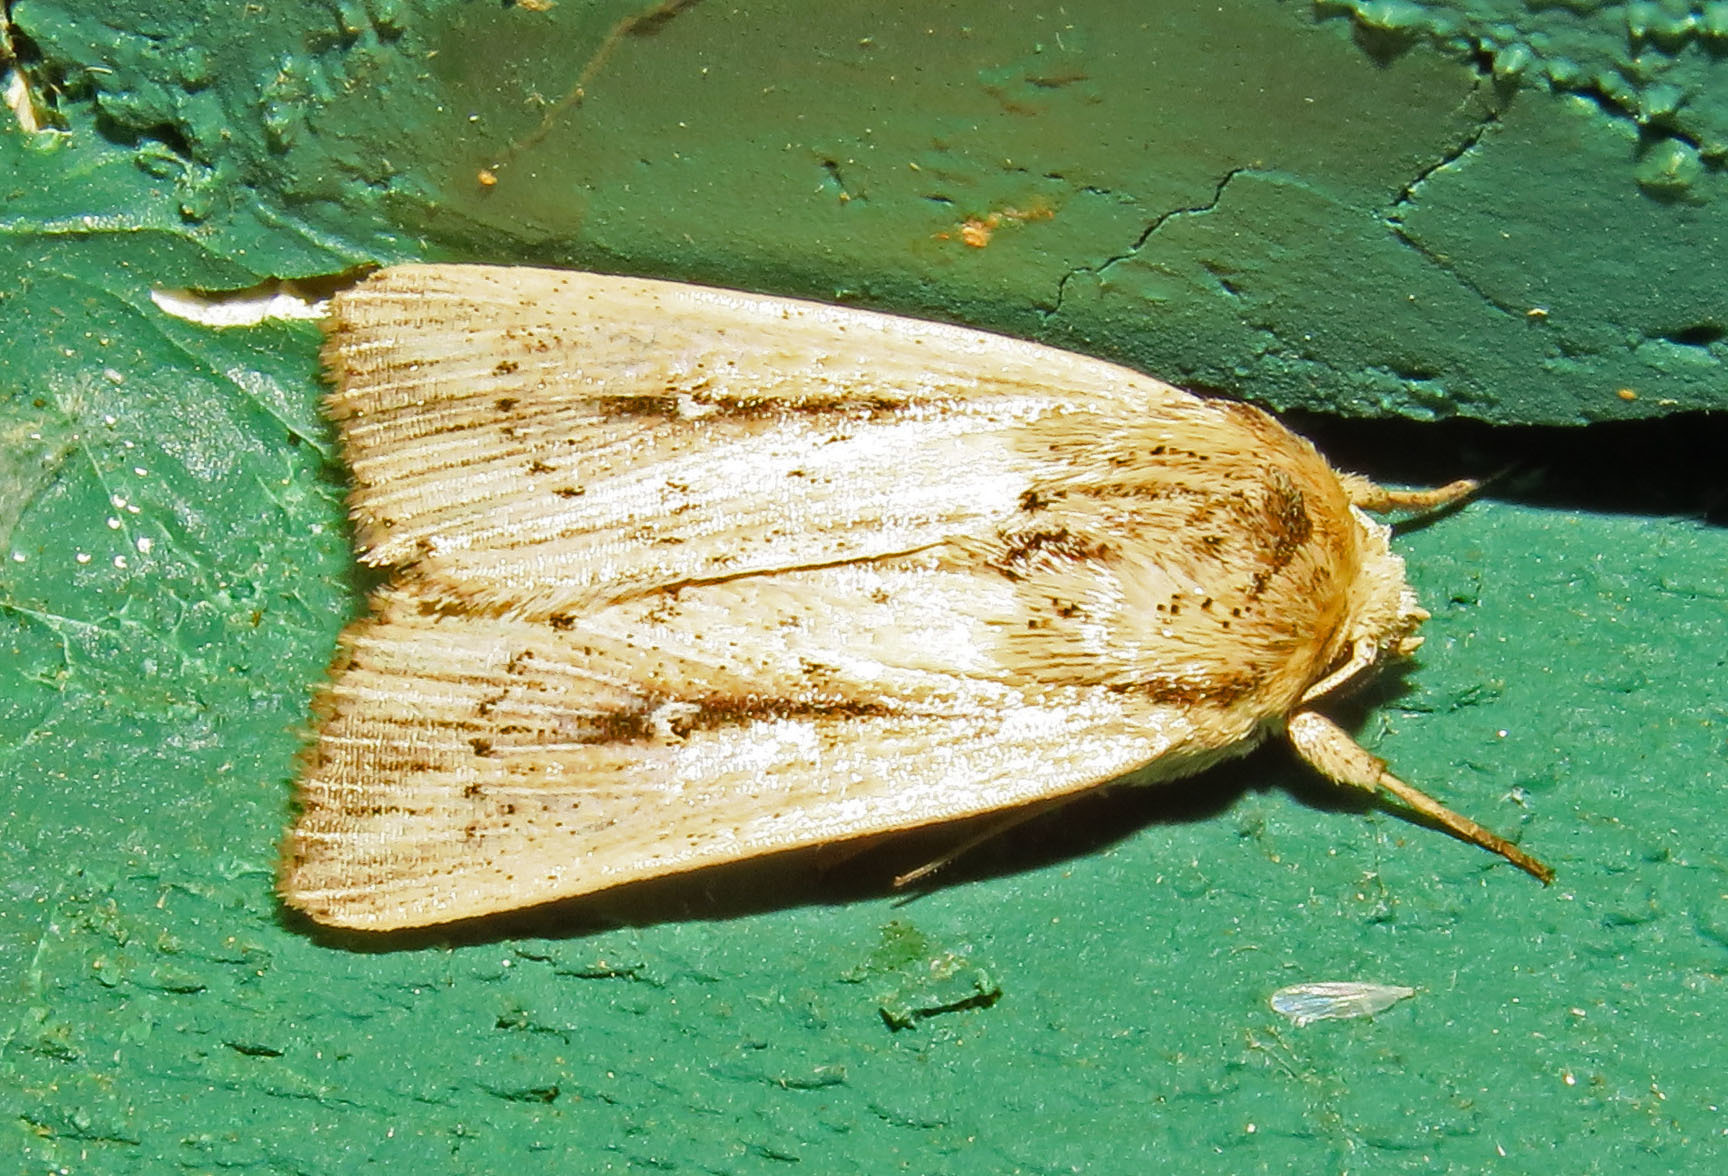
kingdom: Animalia
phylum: Arthropoda
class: Insecta
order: Lepidoptera
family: Noctuidae
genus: Leucania
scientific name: Leucania incognita
